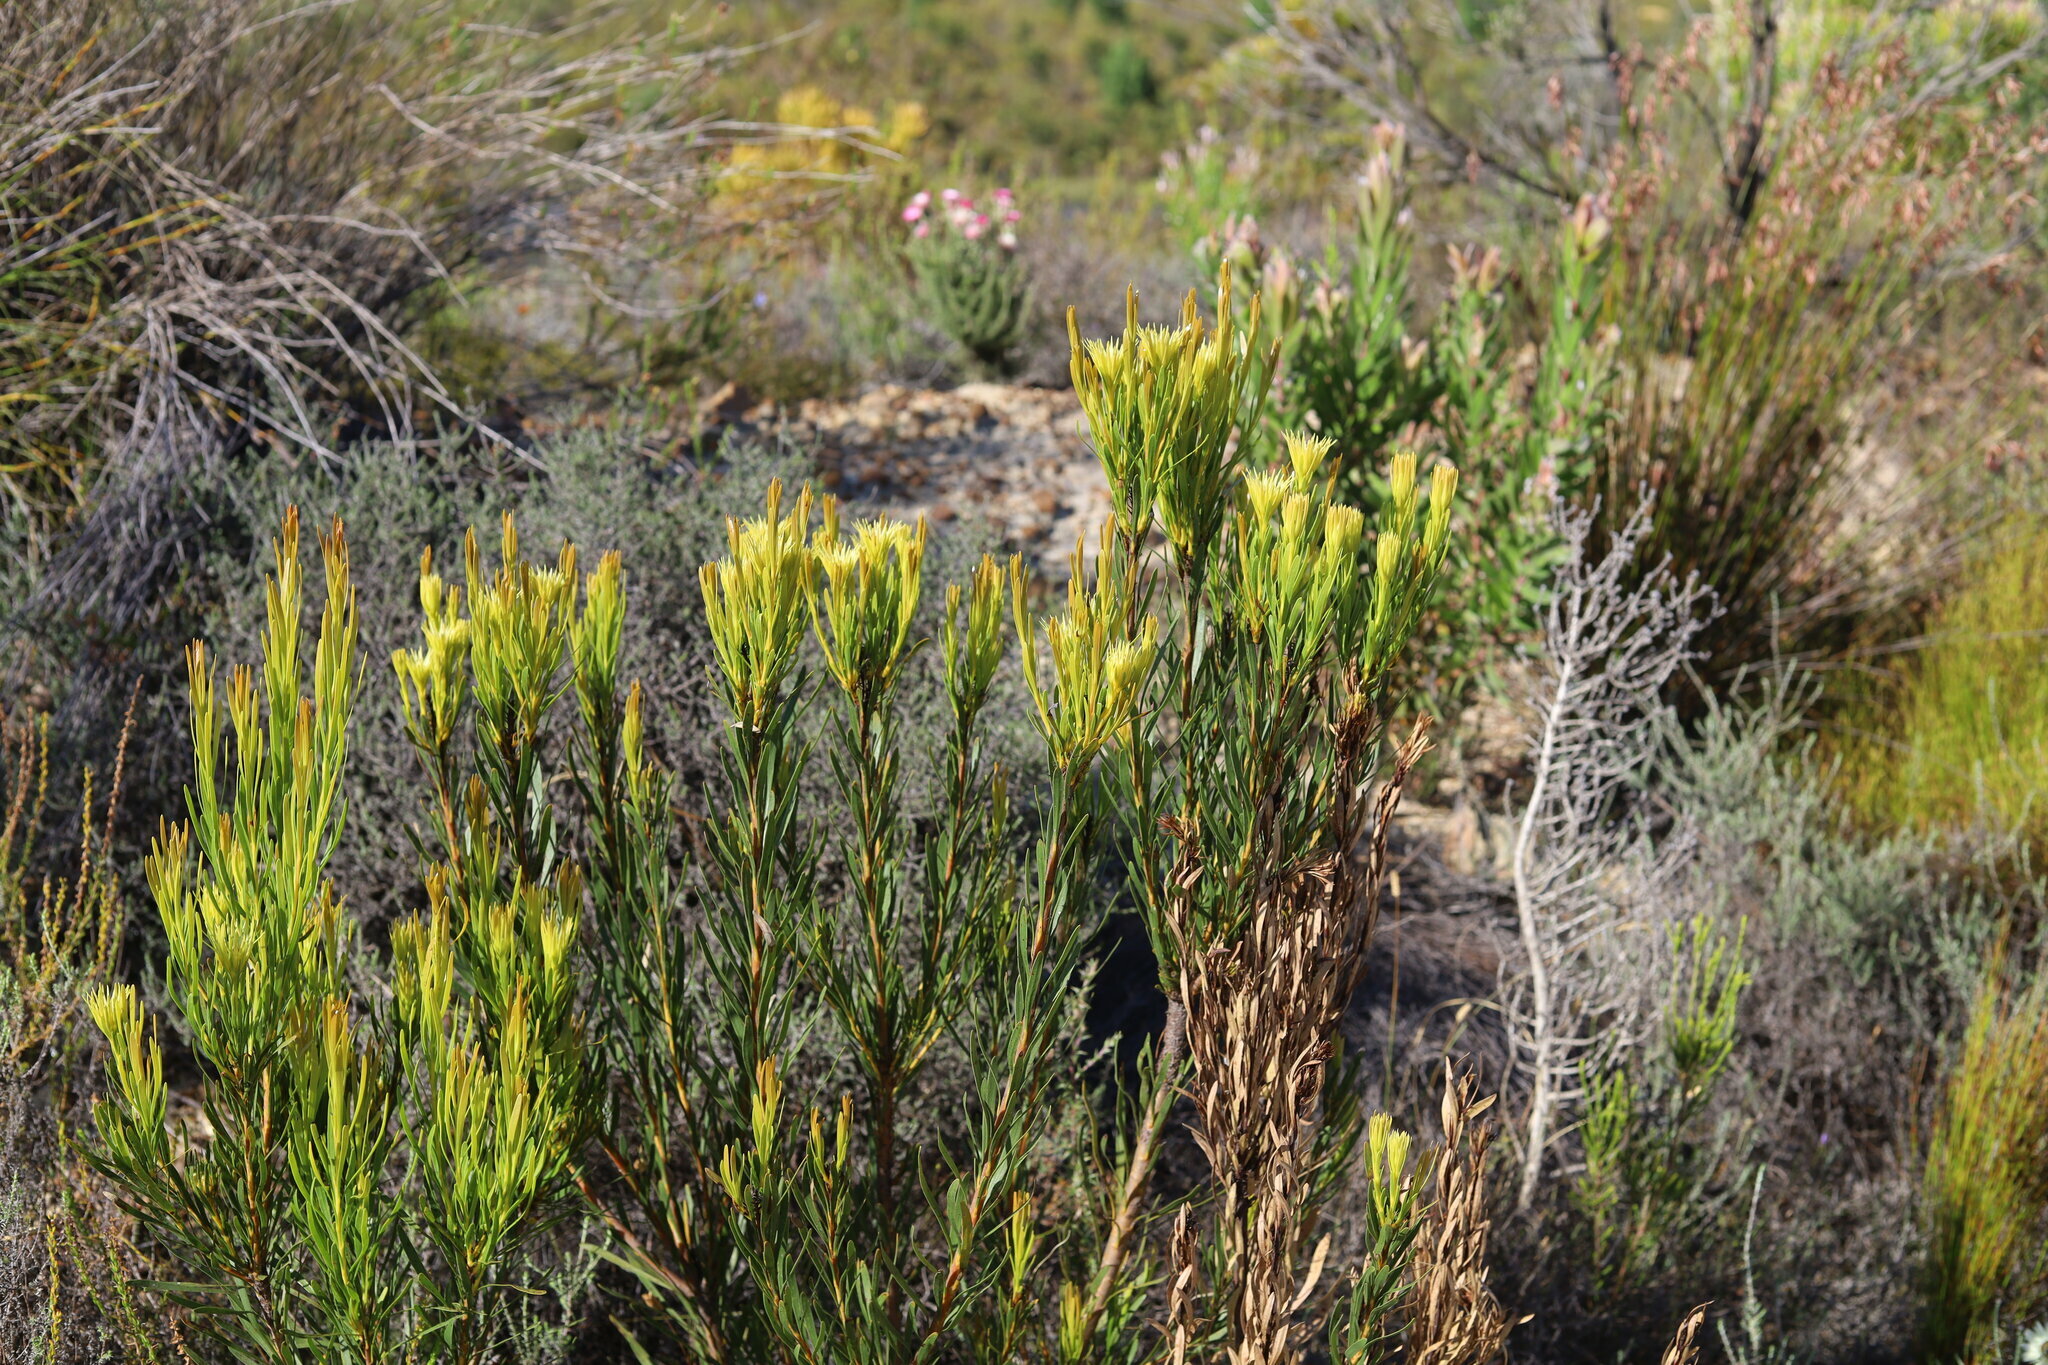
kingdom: Plantae
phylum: Tracheophyta
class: Magnoliopsida
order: Proteales
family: Proteaceae
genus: Aulax
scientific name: Aulax umbellata
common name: Broad-leaf featherbush
